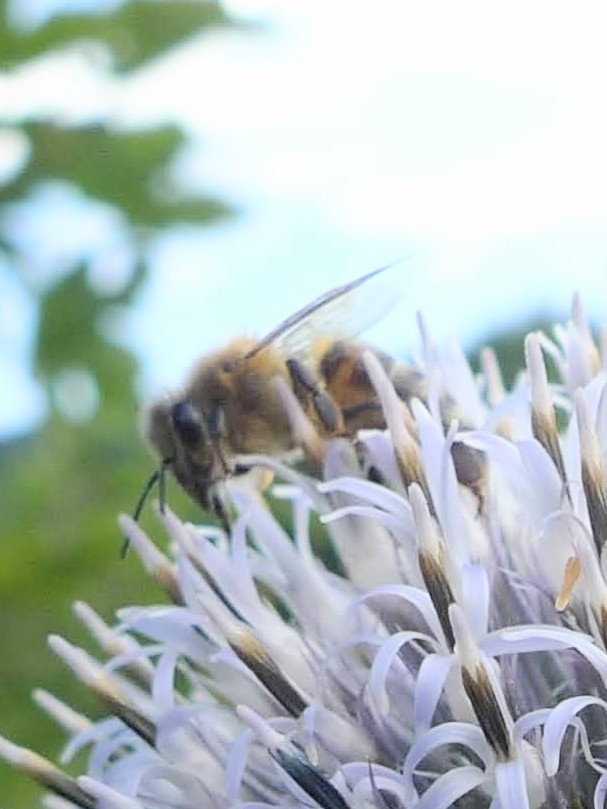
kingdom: Animalia
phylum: Arthropoda
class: Insecta
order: Hymenoptera
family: Apidae
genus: Apis
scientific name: Apis mellifera
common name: Honey bee
